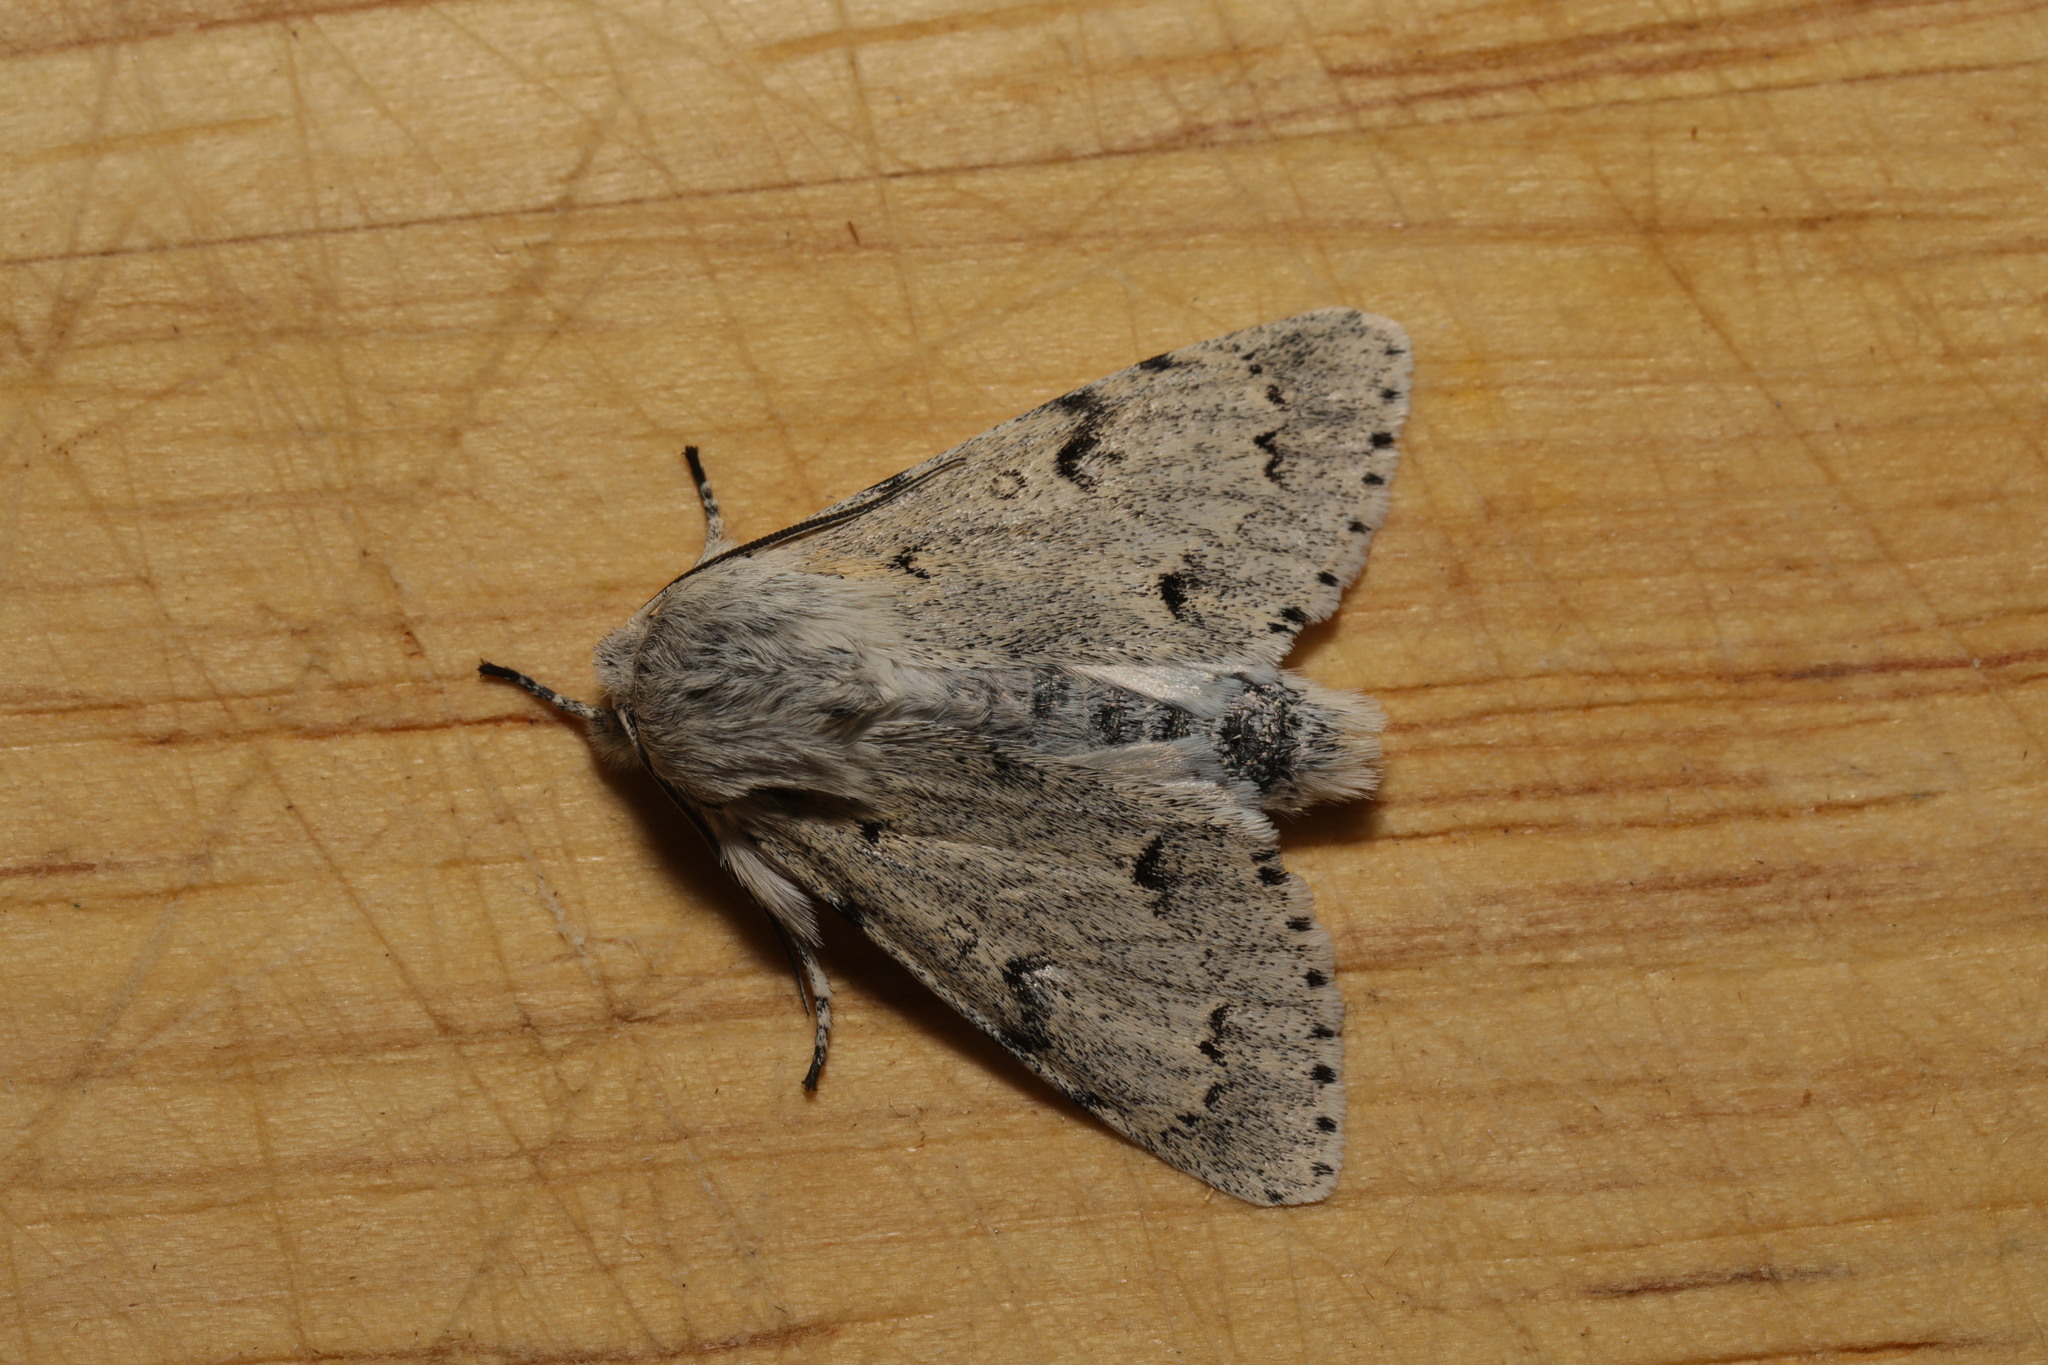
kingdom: Animalia
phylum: Arthropoda
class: Insecta
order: Lepidoptera
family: Noctuidae
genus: Acronicta
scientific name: Acronicta leporina
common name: Miller
